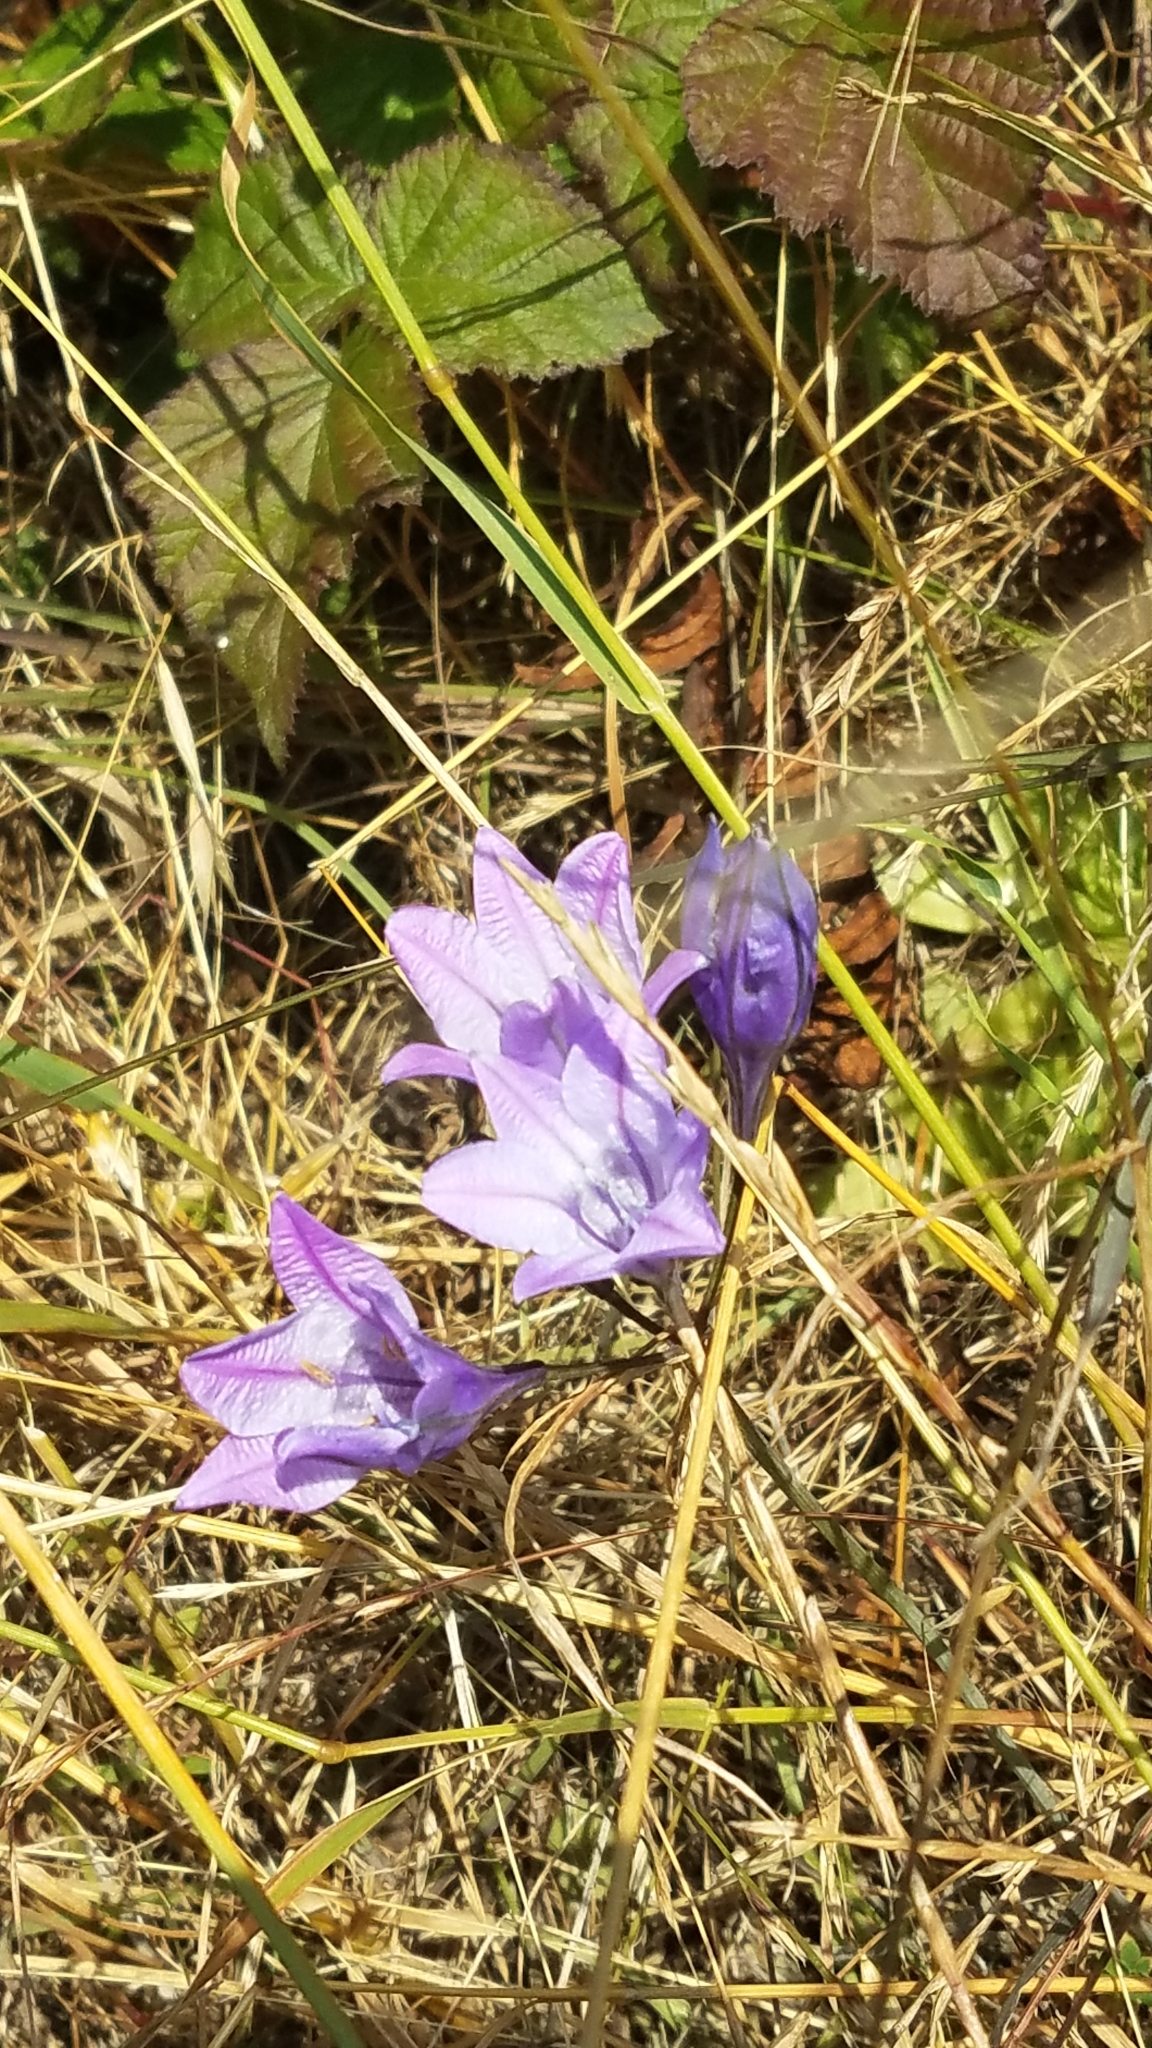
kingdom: Plantae
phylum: Tracheophyta
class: Liliopsida
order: Asparagales
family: Asparagaceae
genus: Triteleia
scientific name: Triteleia laxa
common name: Triplet-lily
